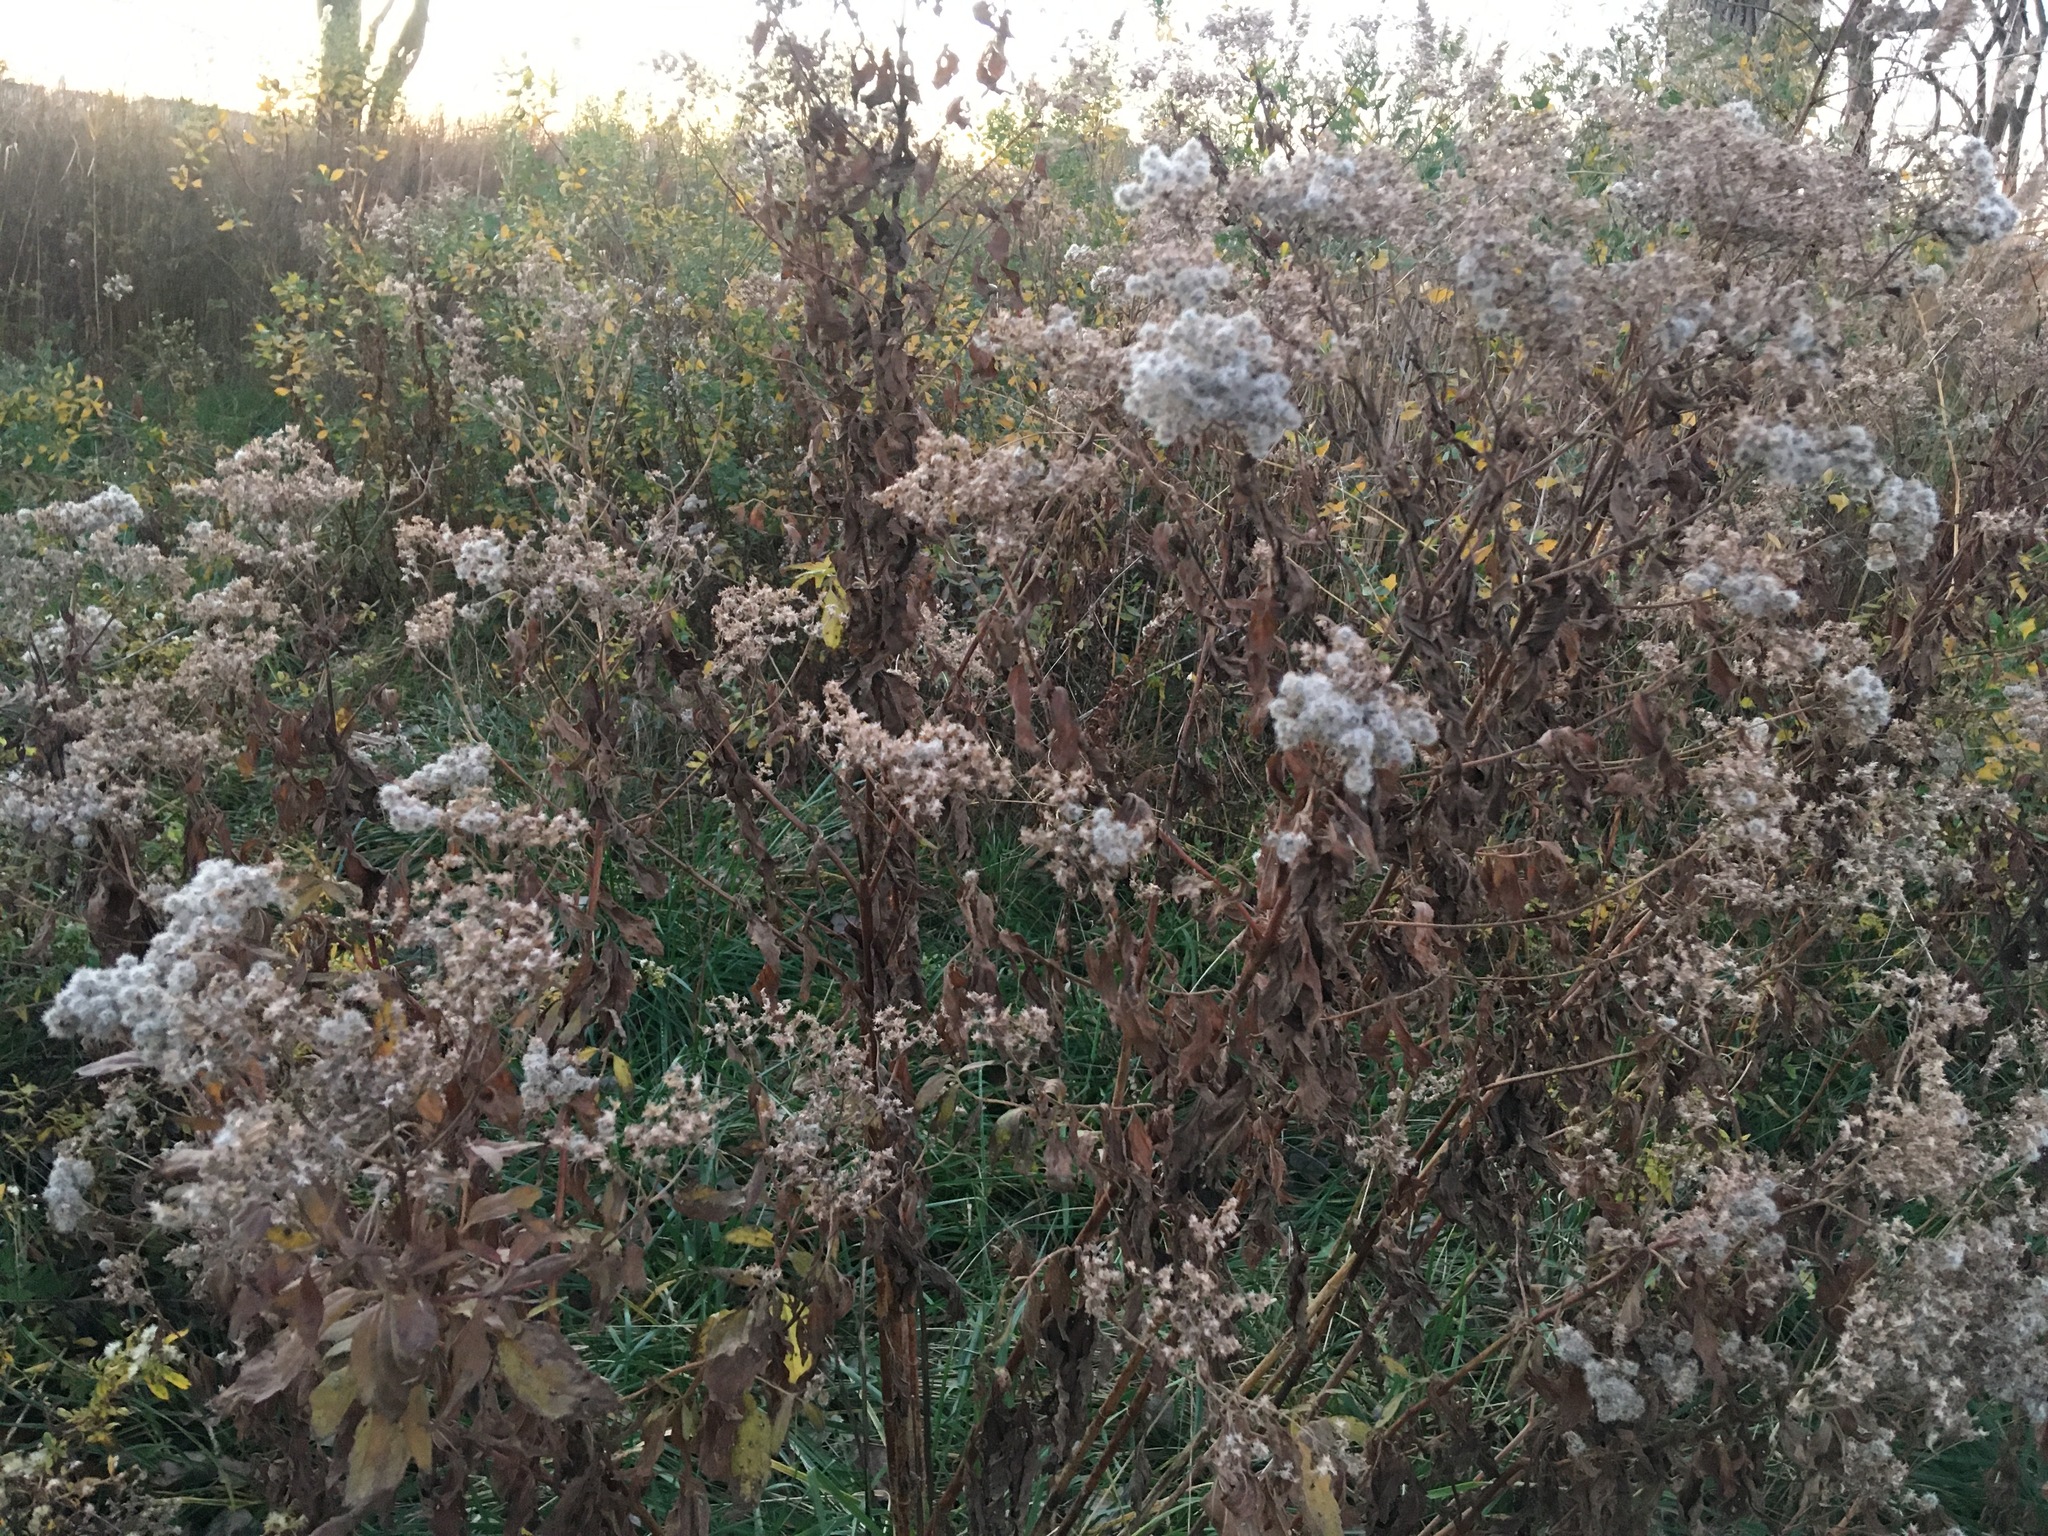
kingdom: Plantae
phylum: Tracheophyta
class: Magnoliopsida
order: Asterales
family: Asteraceae
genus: Baccharis
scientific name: Baccharis halimifolia
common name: Eastern baccharis
